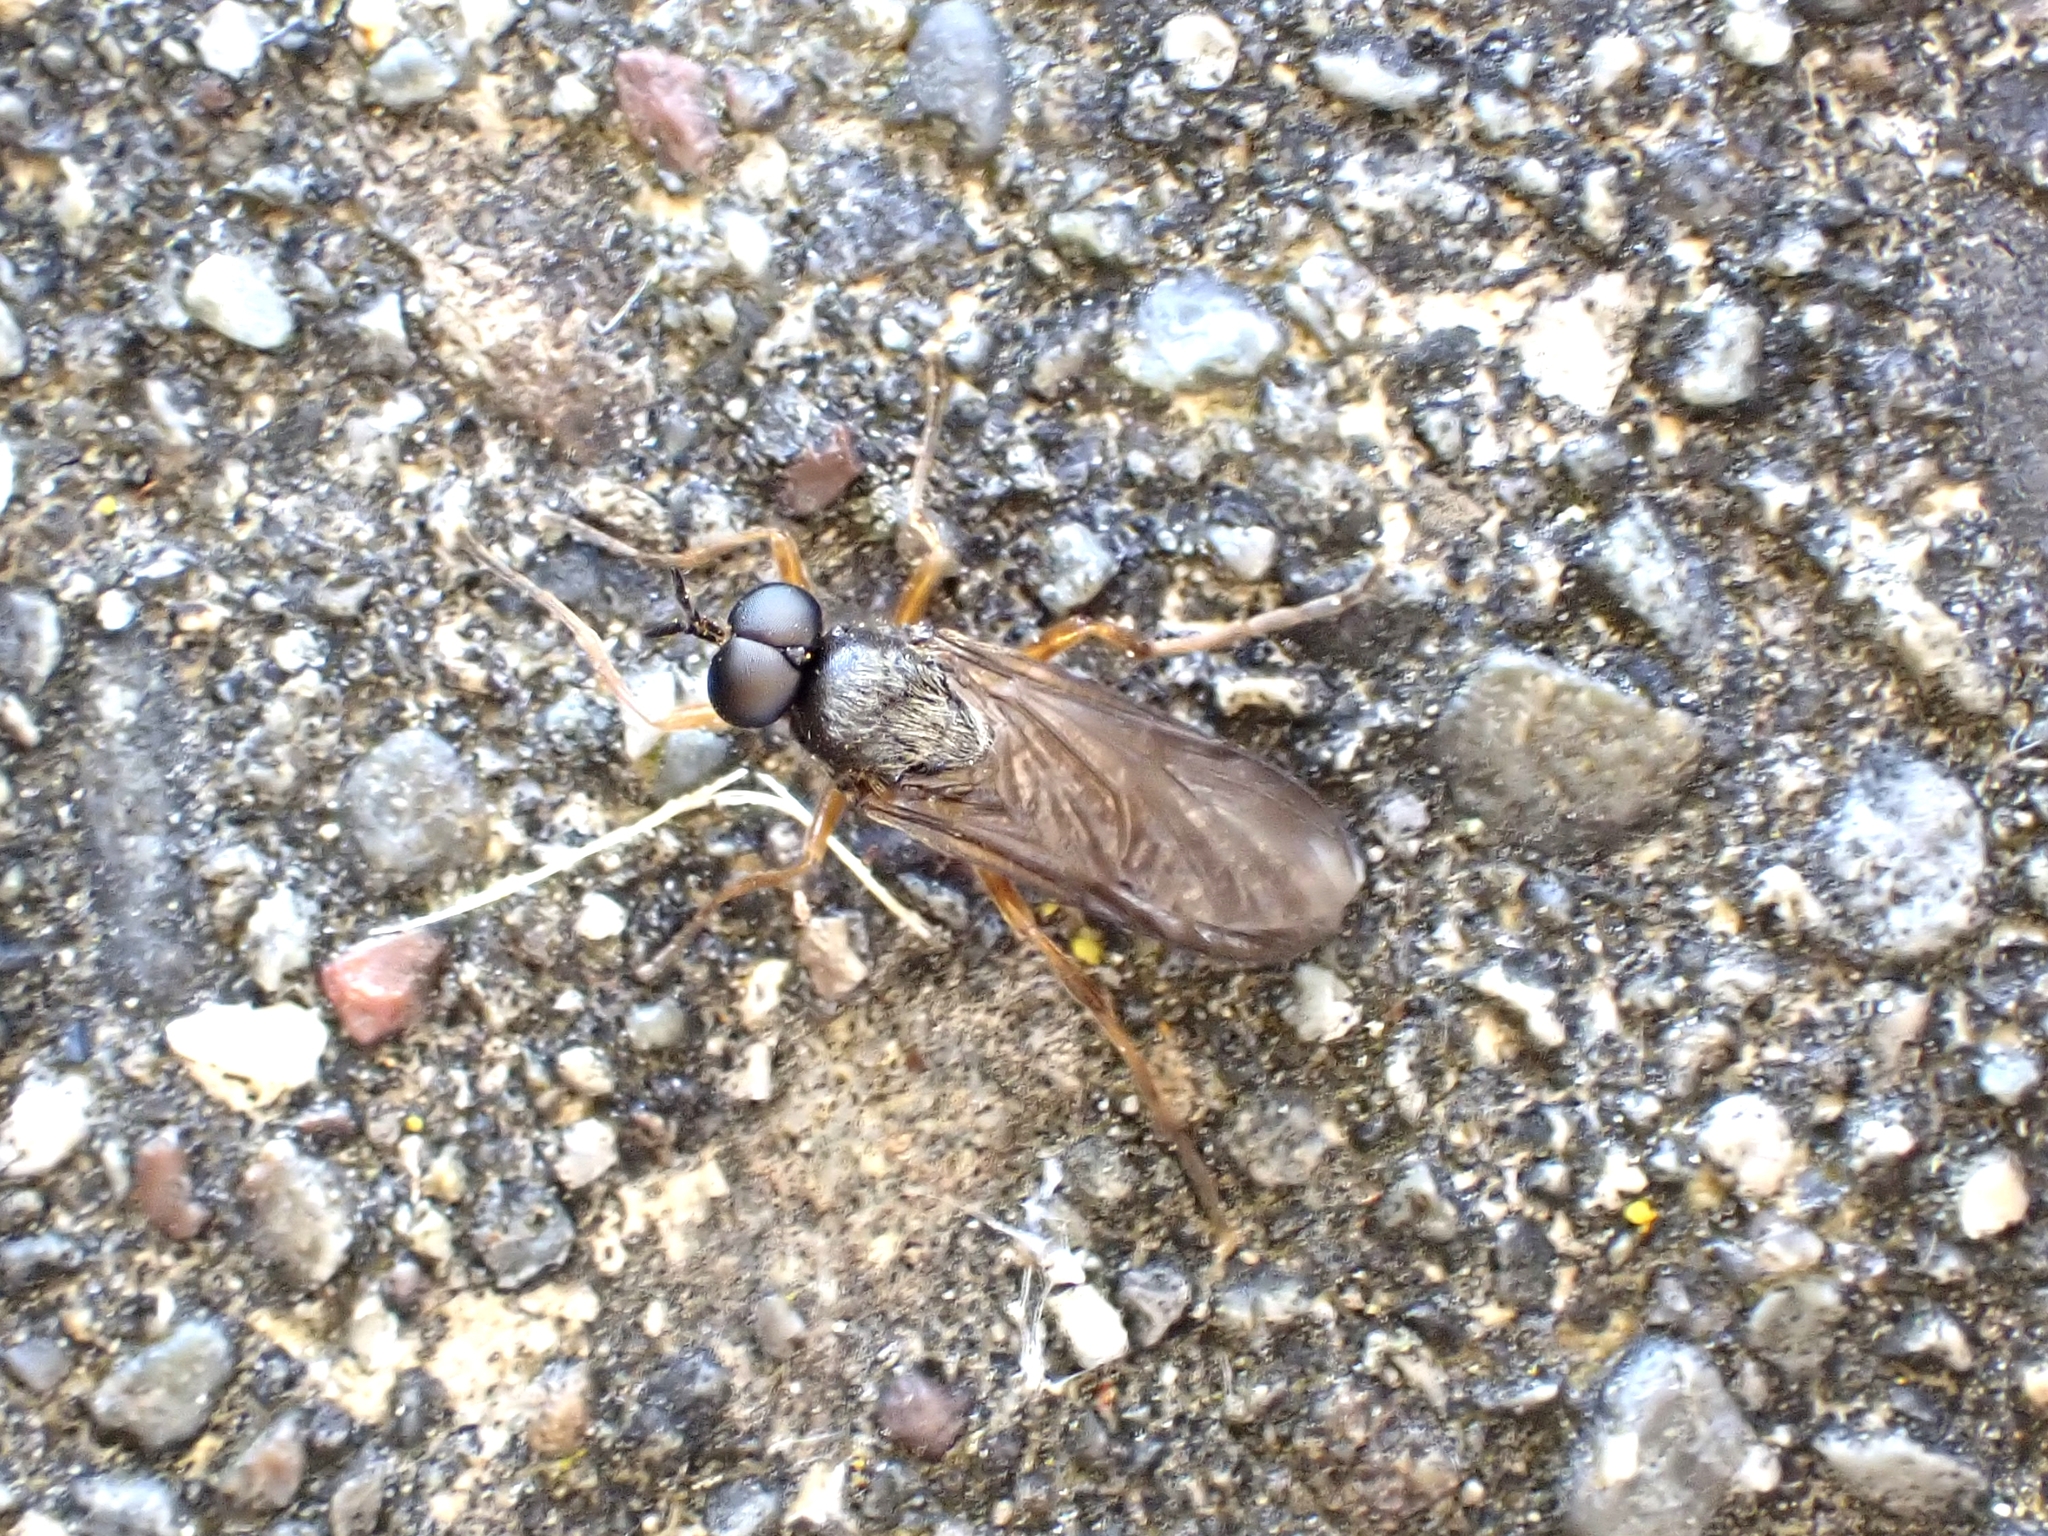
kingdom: Animalia
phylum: Arthropoda
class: Insecta
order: Diptera
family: Stratiomyidae
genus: Inopus
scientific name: Inopus rubriceps
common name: Soldier fly
